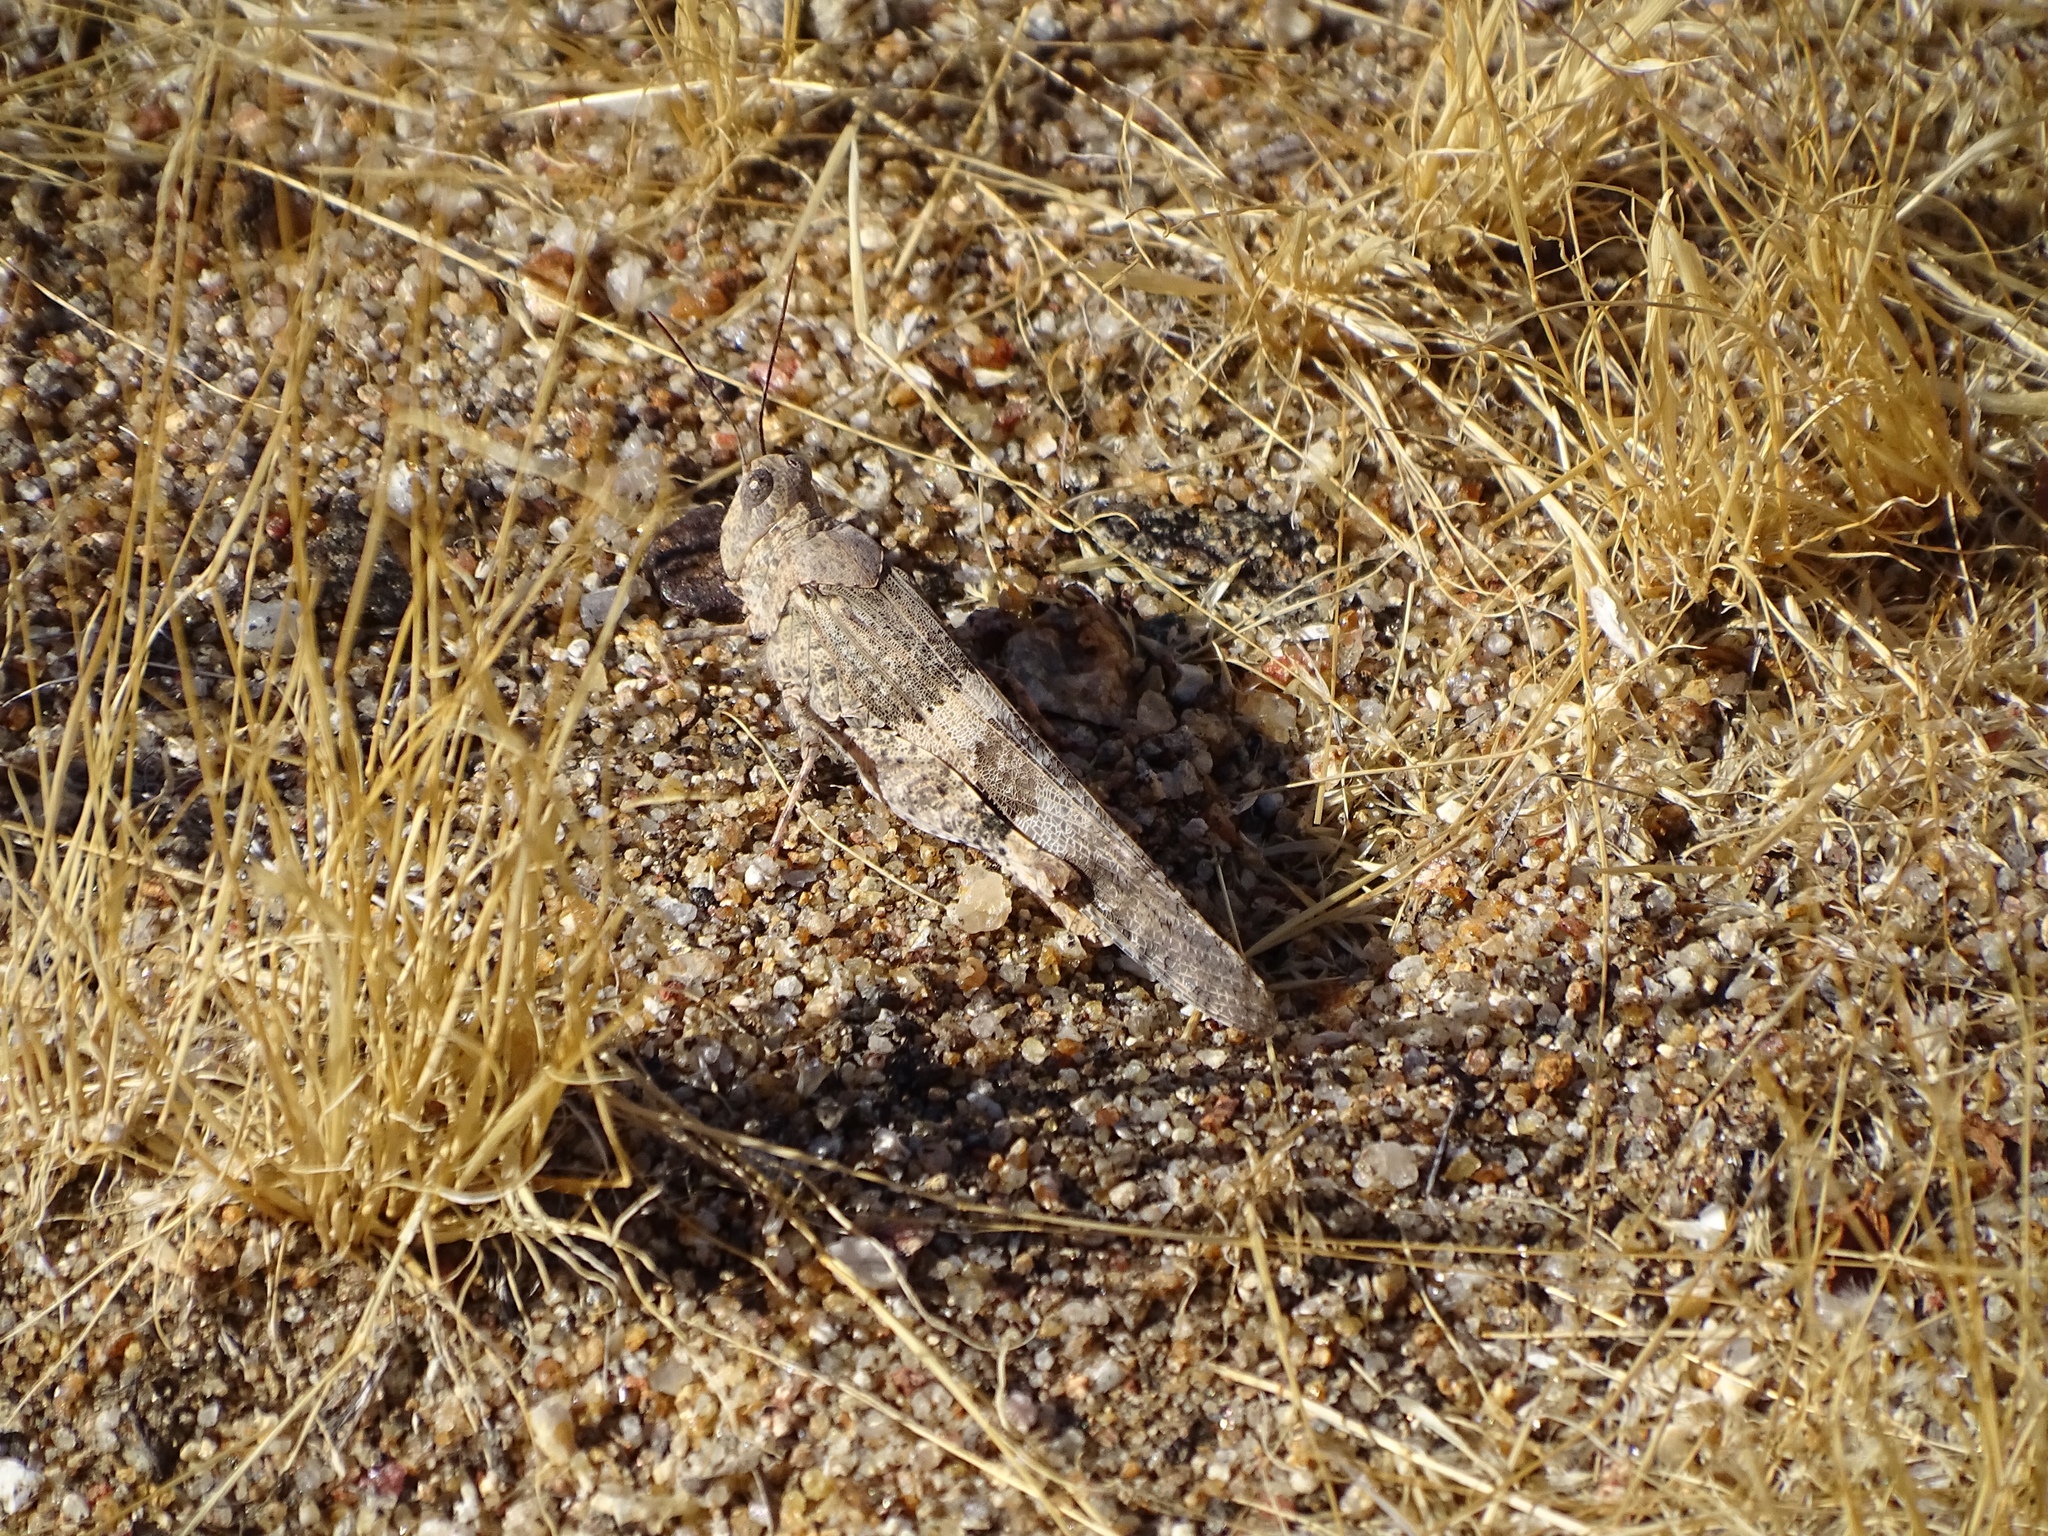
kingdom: Animalia
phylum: Arthropoda
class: Insecta
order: Orthoptera
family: Acrididae
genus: Trimerotropis
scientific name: Trimerotropis pallidipennis
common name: Pallid-winged grasshopper
